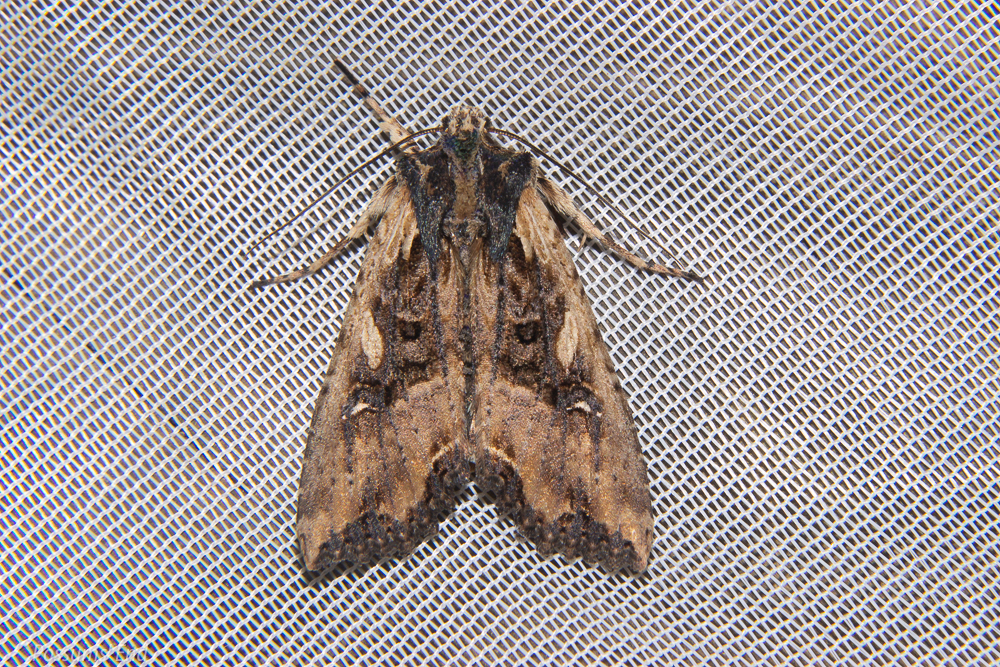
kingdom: Animalia
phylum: Arthropoda
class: Insecta
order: Lepidoptera
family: Noctuidae
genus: Meterana
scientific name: Meterana stipata
